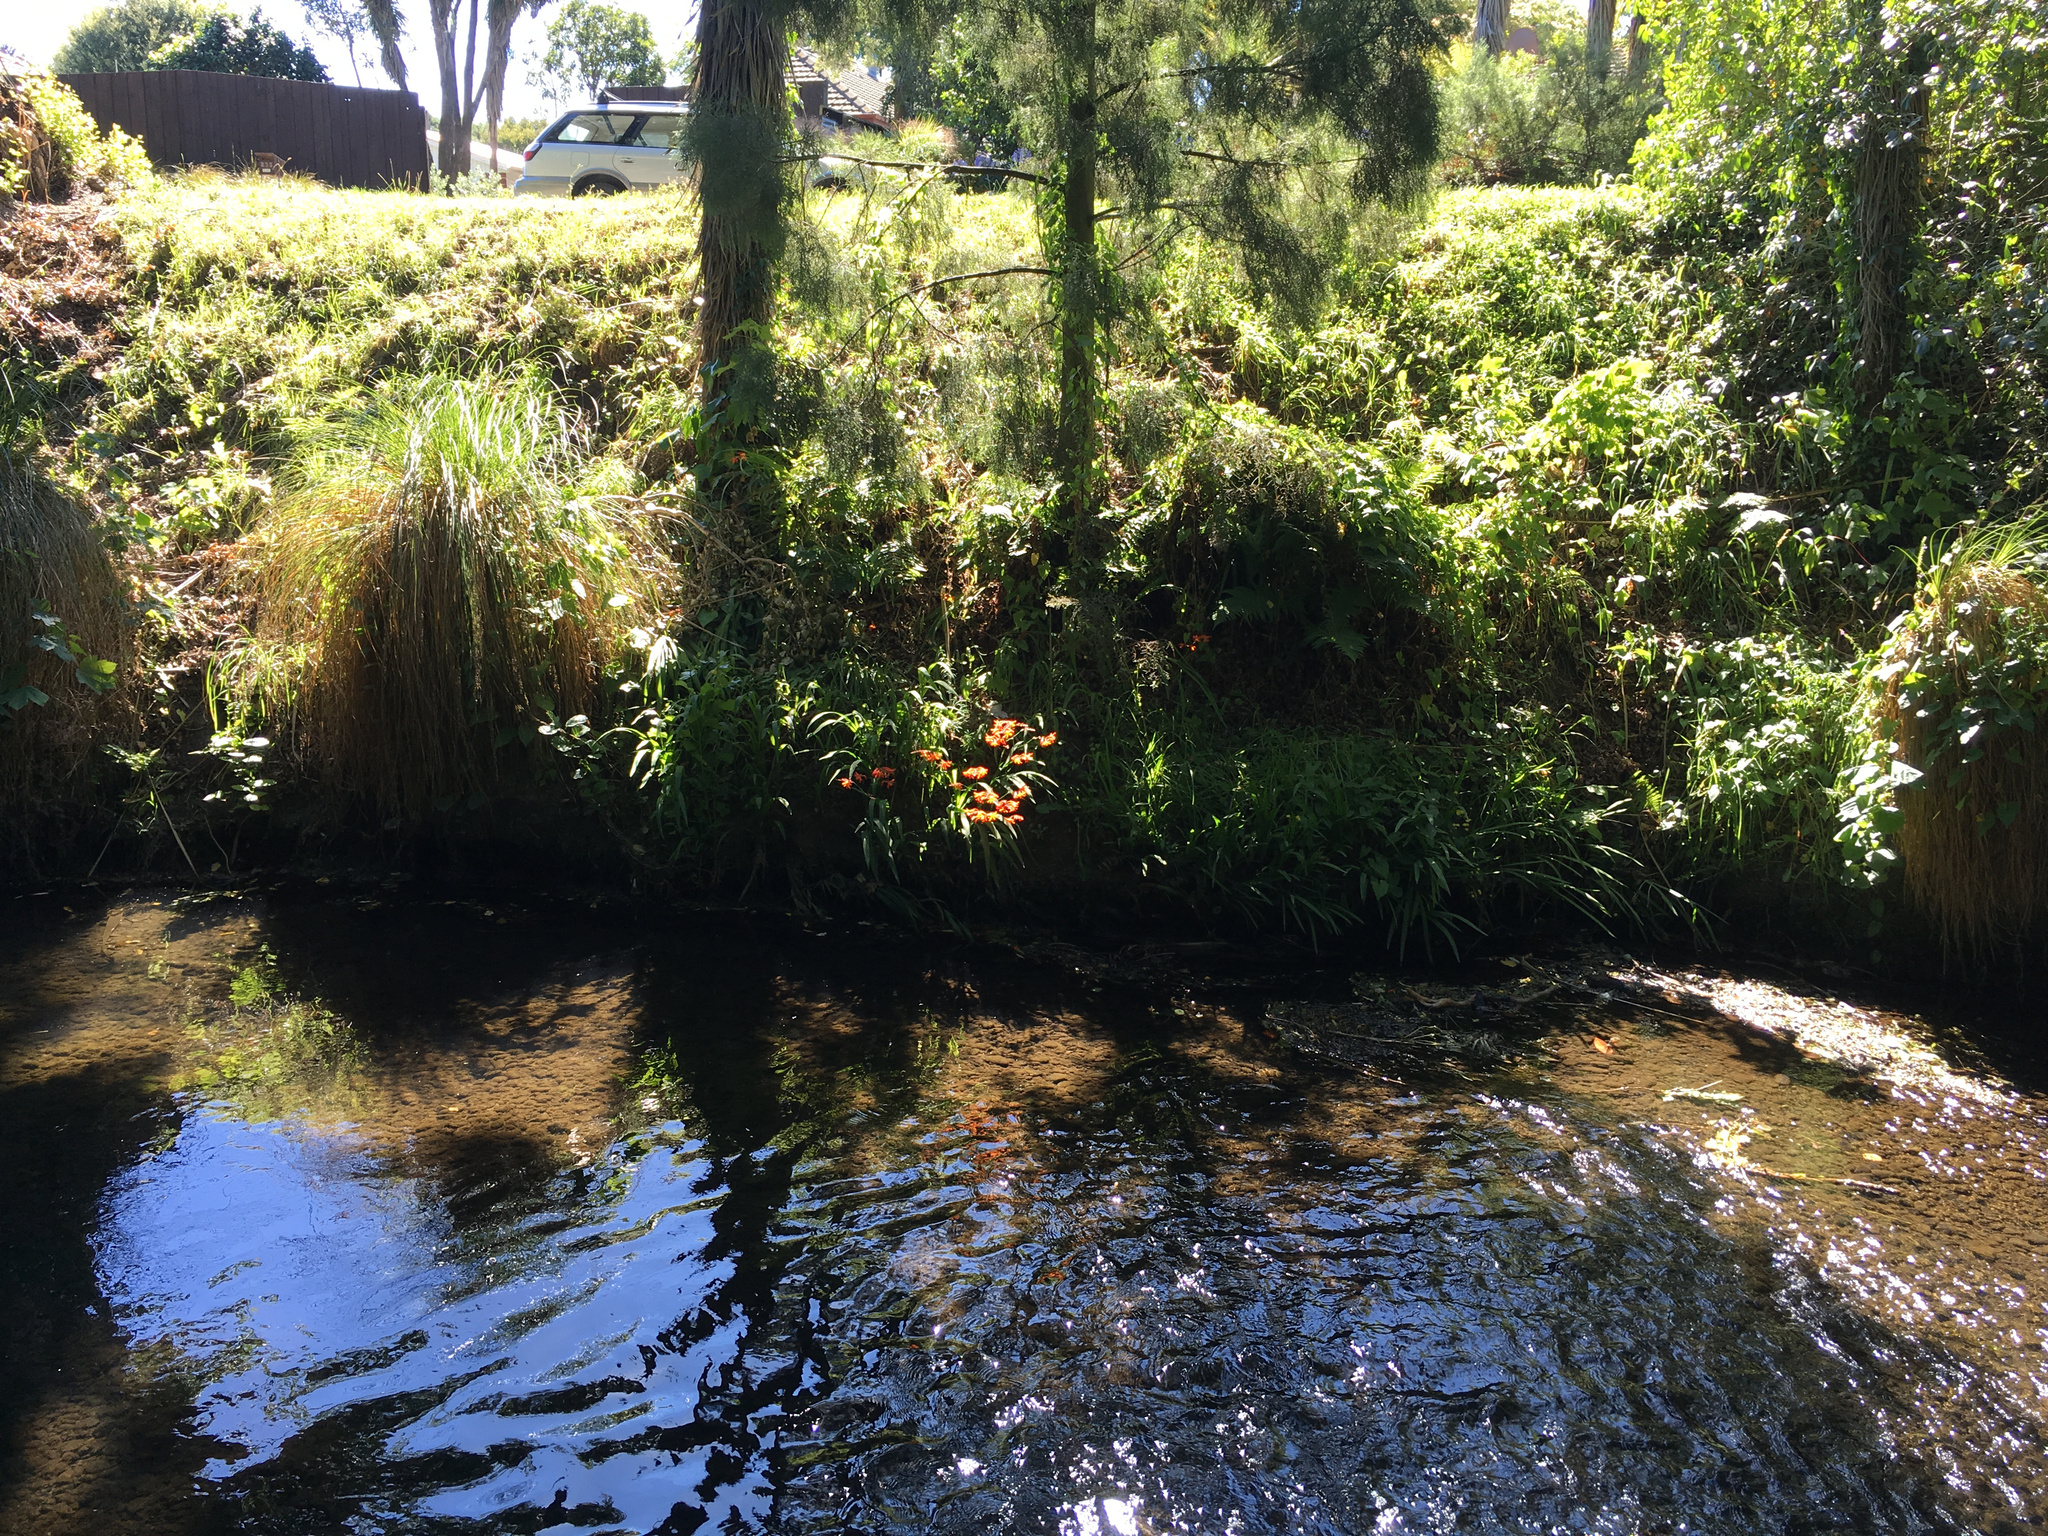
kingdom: Plantae
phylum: Tracheophyta
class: Liliopsida
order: Asparagales
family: Iridaceae
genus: Crocosmia
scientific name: Crocosmia crocosmiiflora
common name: Montbretia
